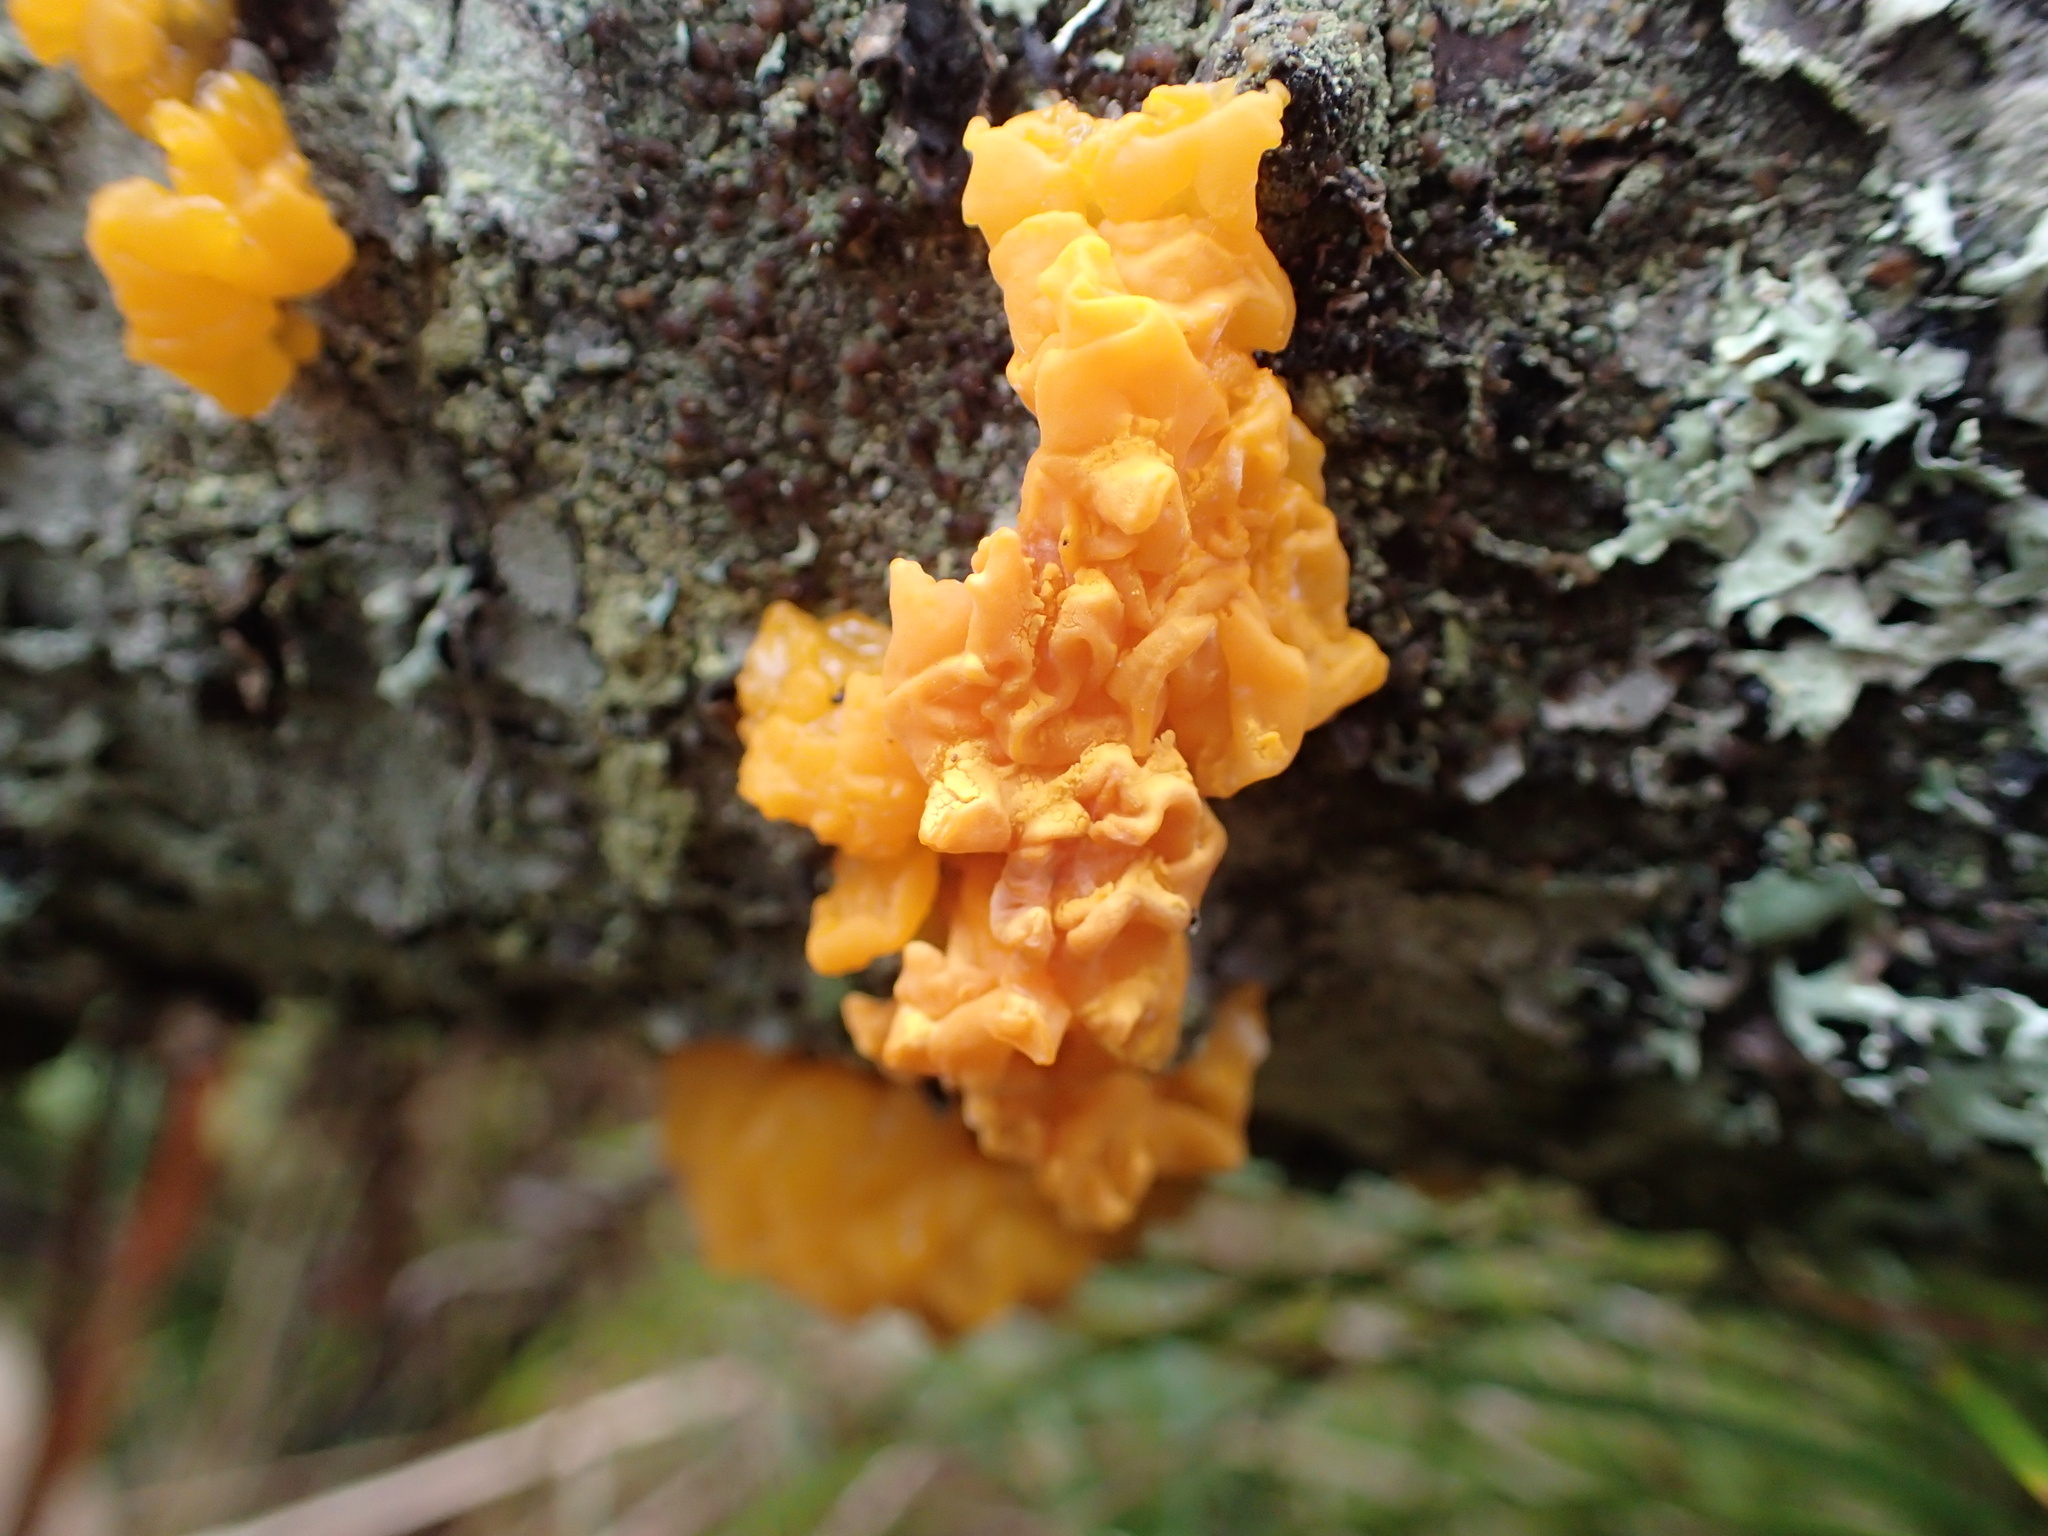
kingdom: Fungi
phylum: Basidiomycota
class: Dacrymycetes
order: Dacrymycetales
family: Dacrymycetaceae
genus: Dacrymyces
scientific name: Dacrymyces chrysospermus
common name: Orange jelly spot
